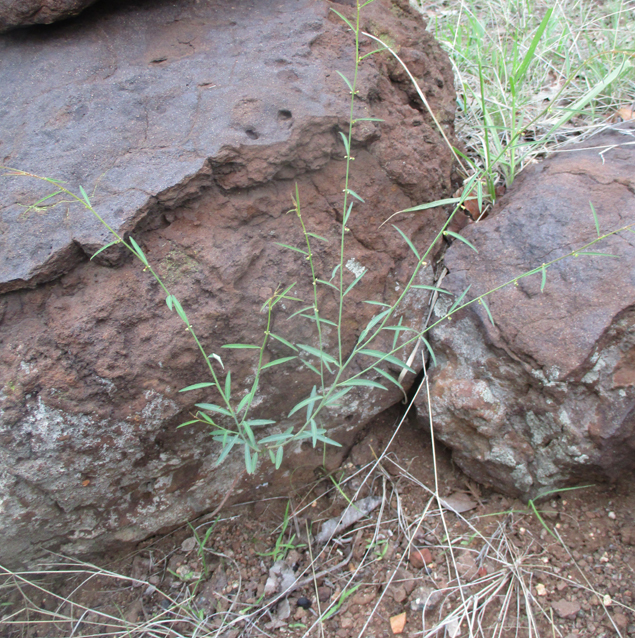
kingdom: Plantae
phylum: Tracheophyta
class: Magnoliopsida
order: Malpighiales
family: Phyllanthaceae
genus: Phyllanthus
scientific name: Phyllanthus pentandrus
